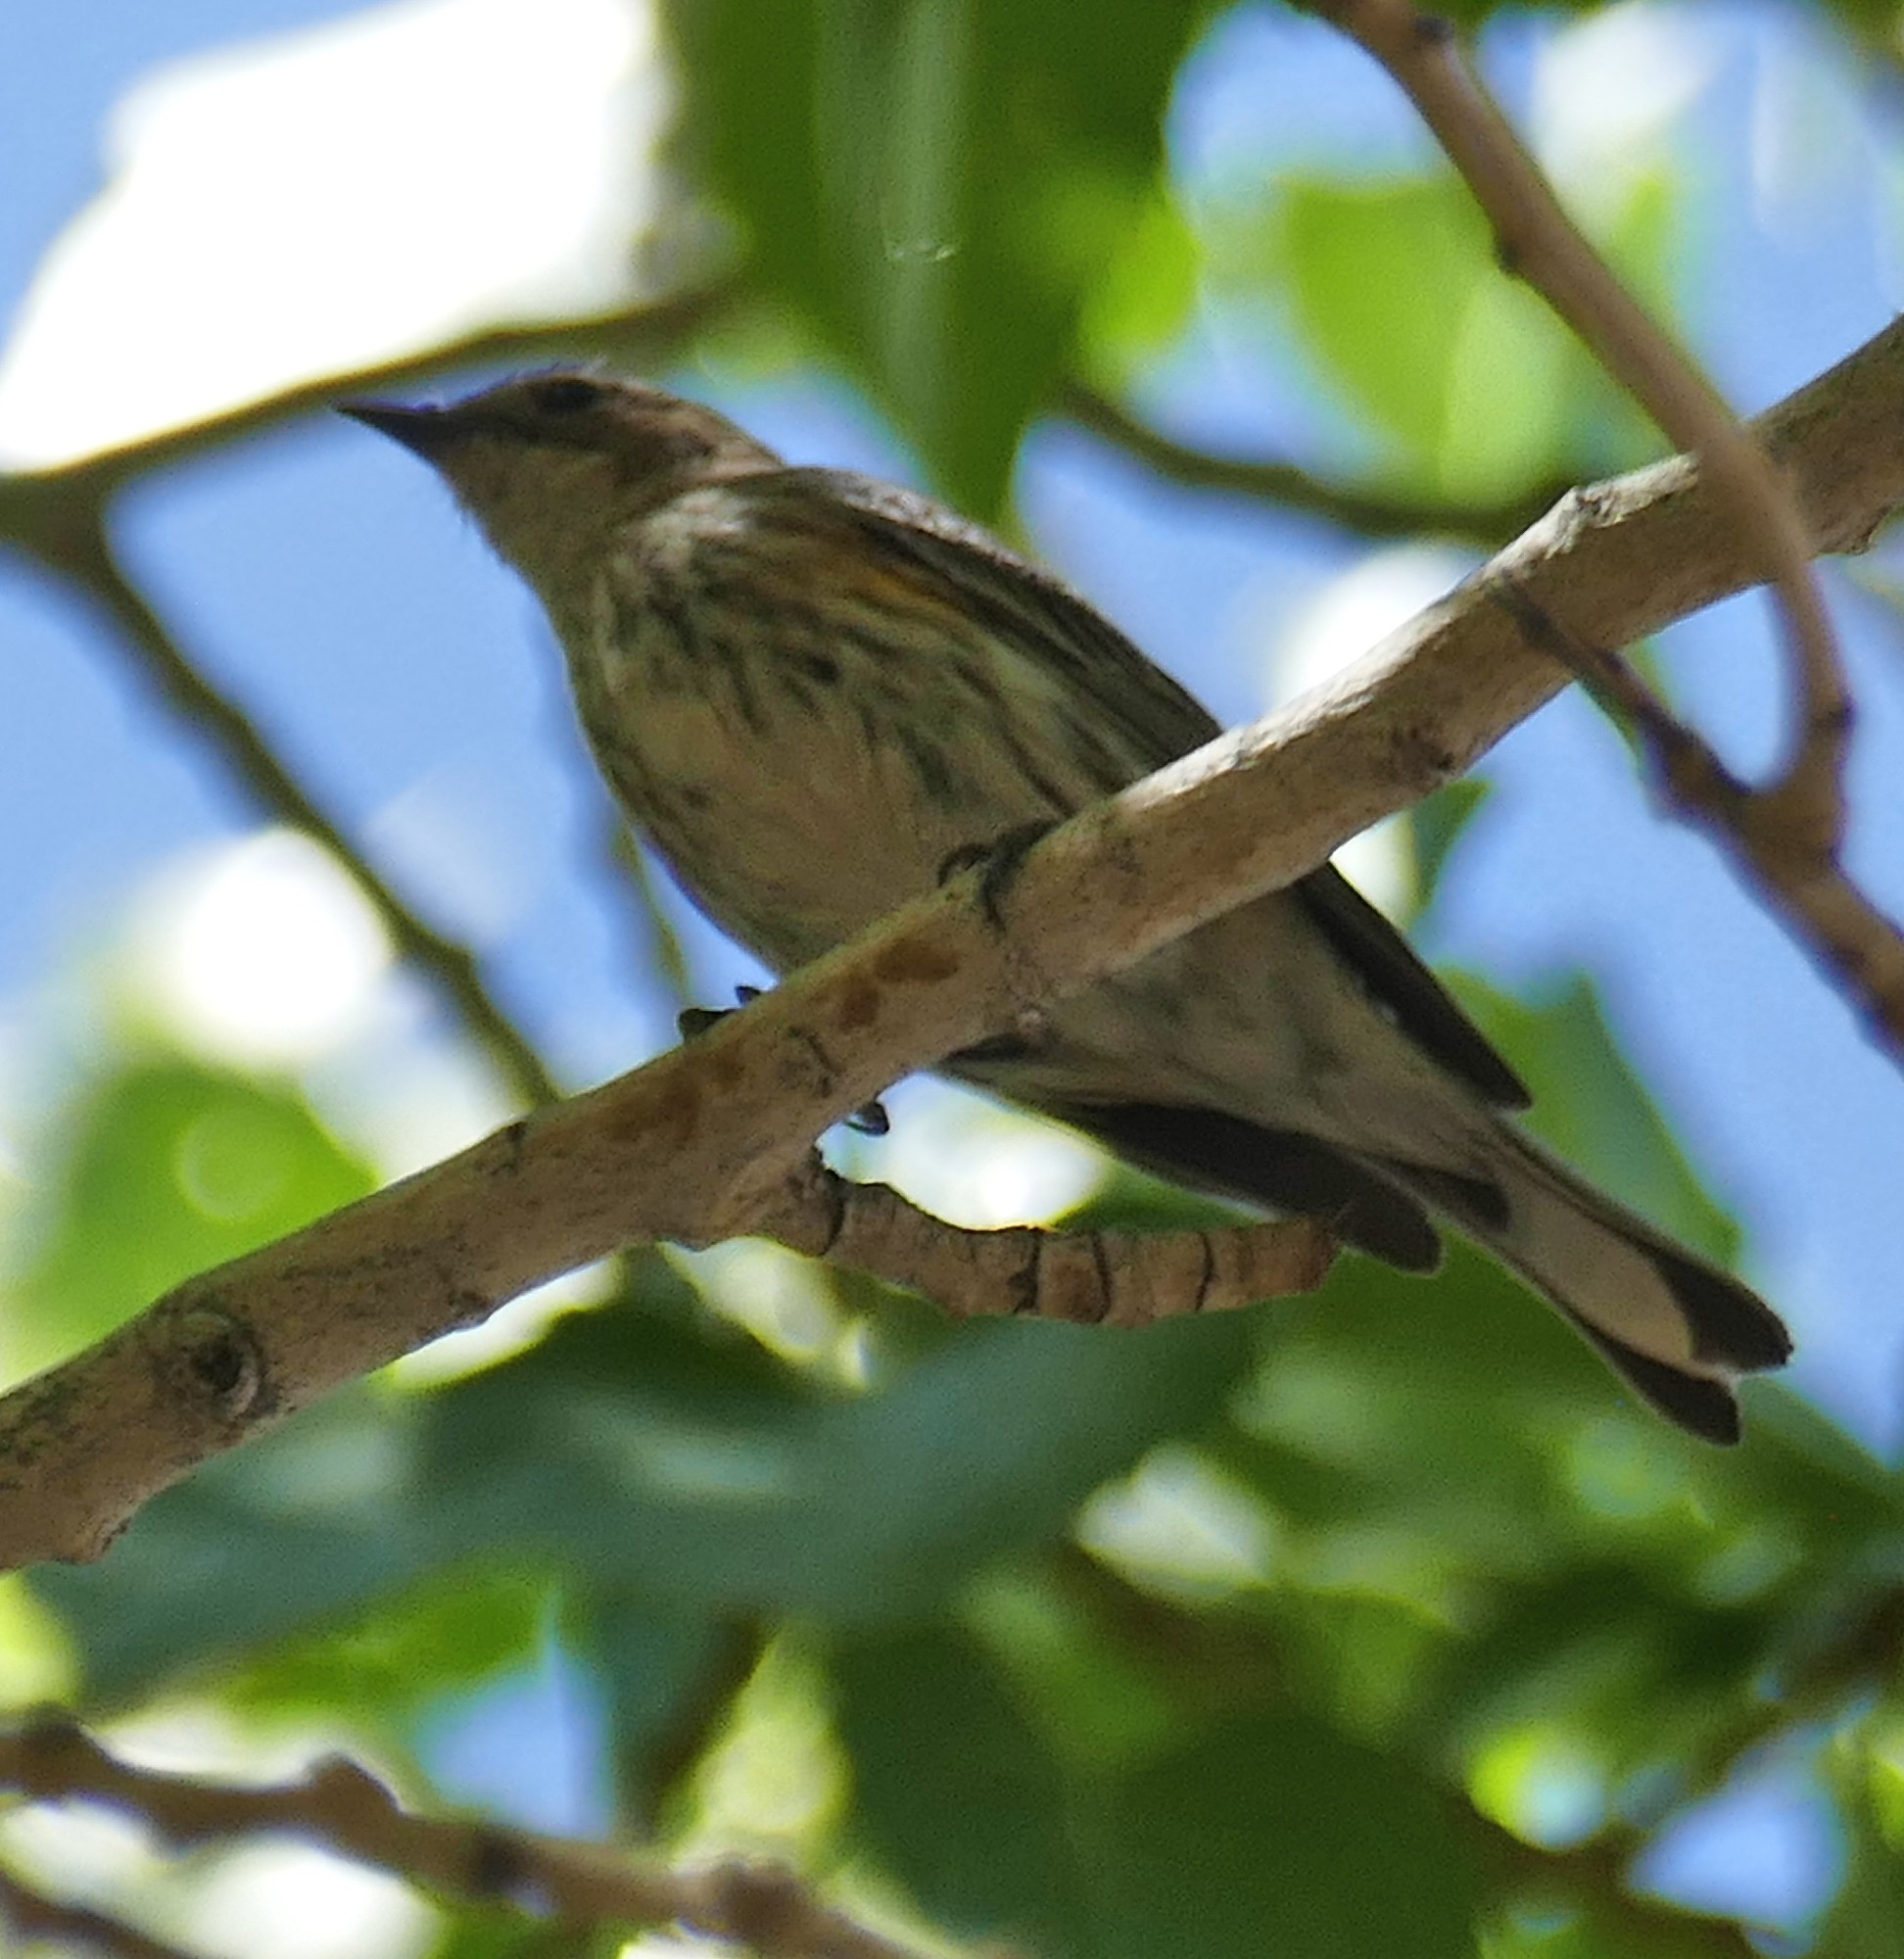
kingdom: Animalia
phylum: Chordata
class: Aves
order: Passeriformes
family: Parulidae
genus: Setophaga
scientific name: Setophaga coronata
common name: Myrtle warbler
